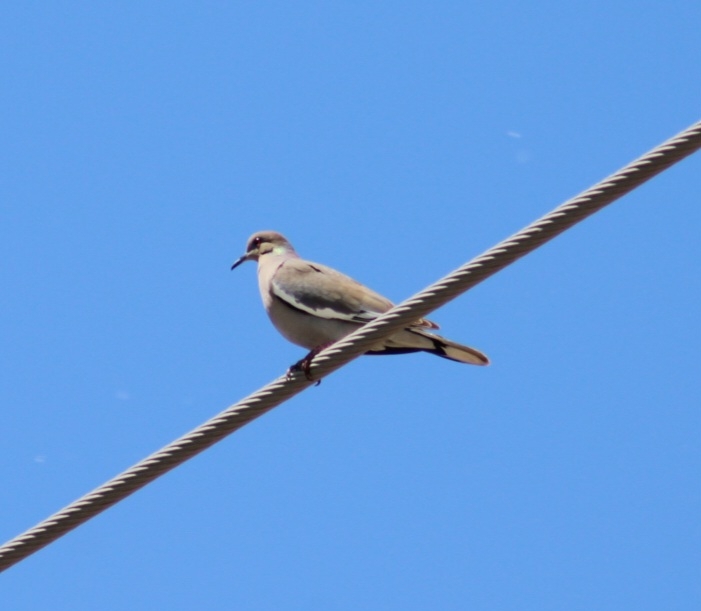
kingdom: Animalia
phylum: Chordata
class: Aves
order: Columbiformes
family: Columbidae
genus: Zenaida
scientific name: Zenaida asiatica
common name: White-winged dove
